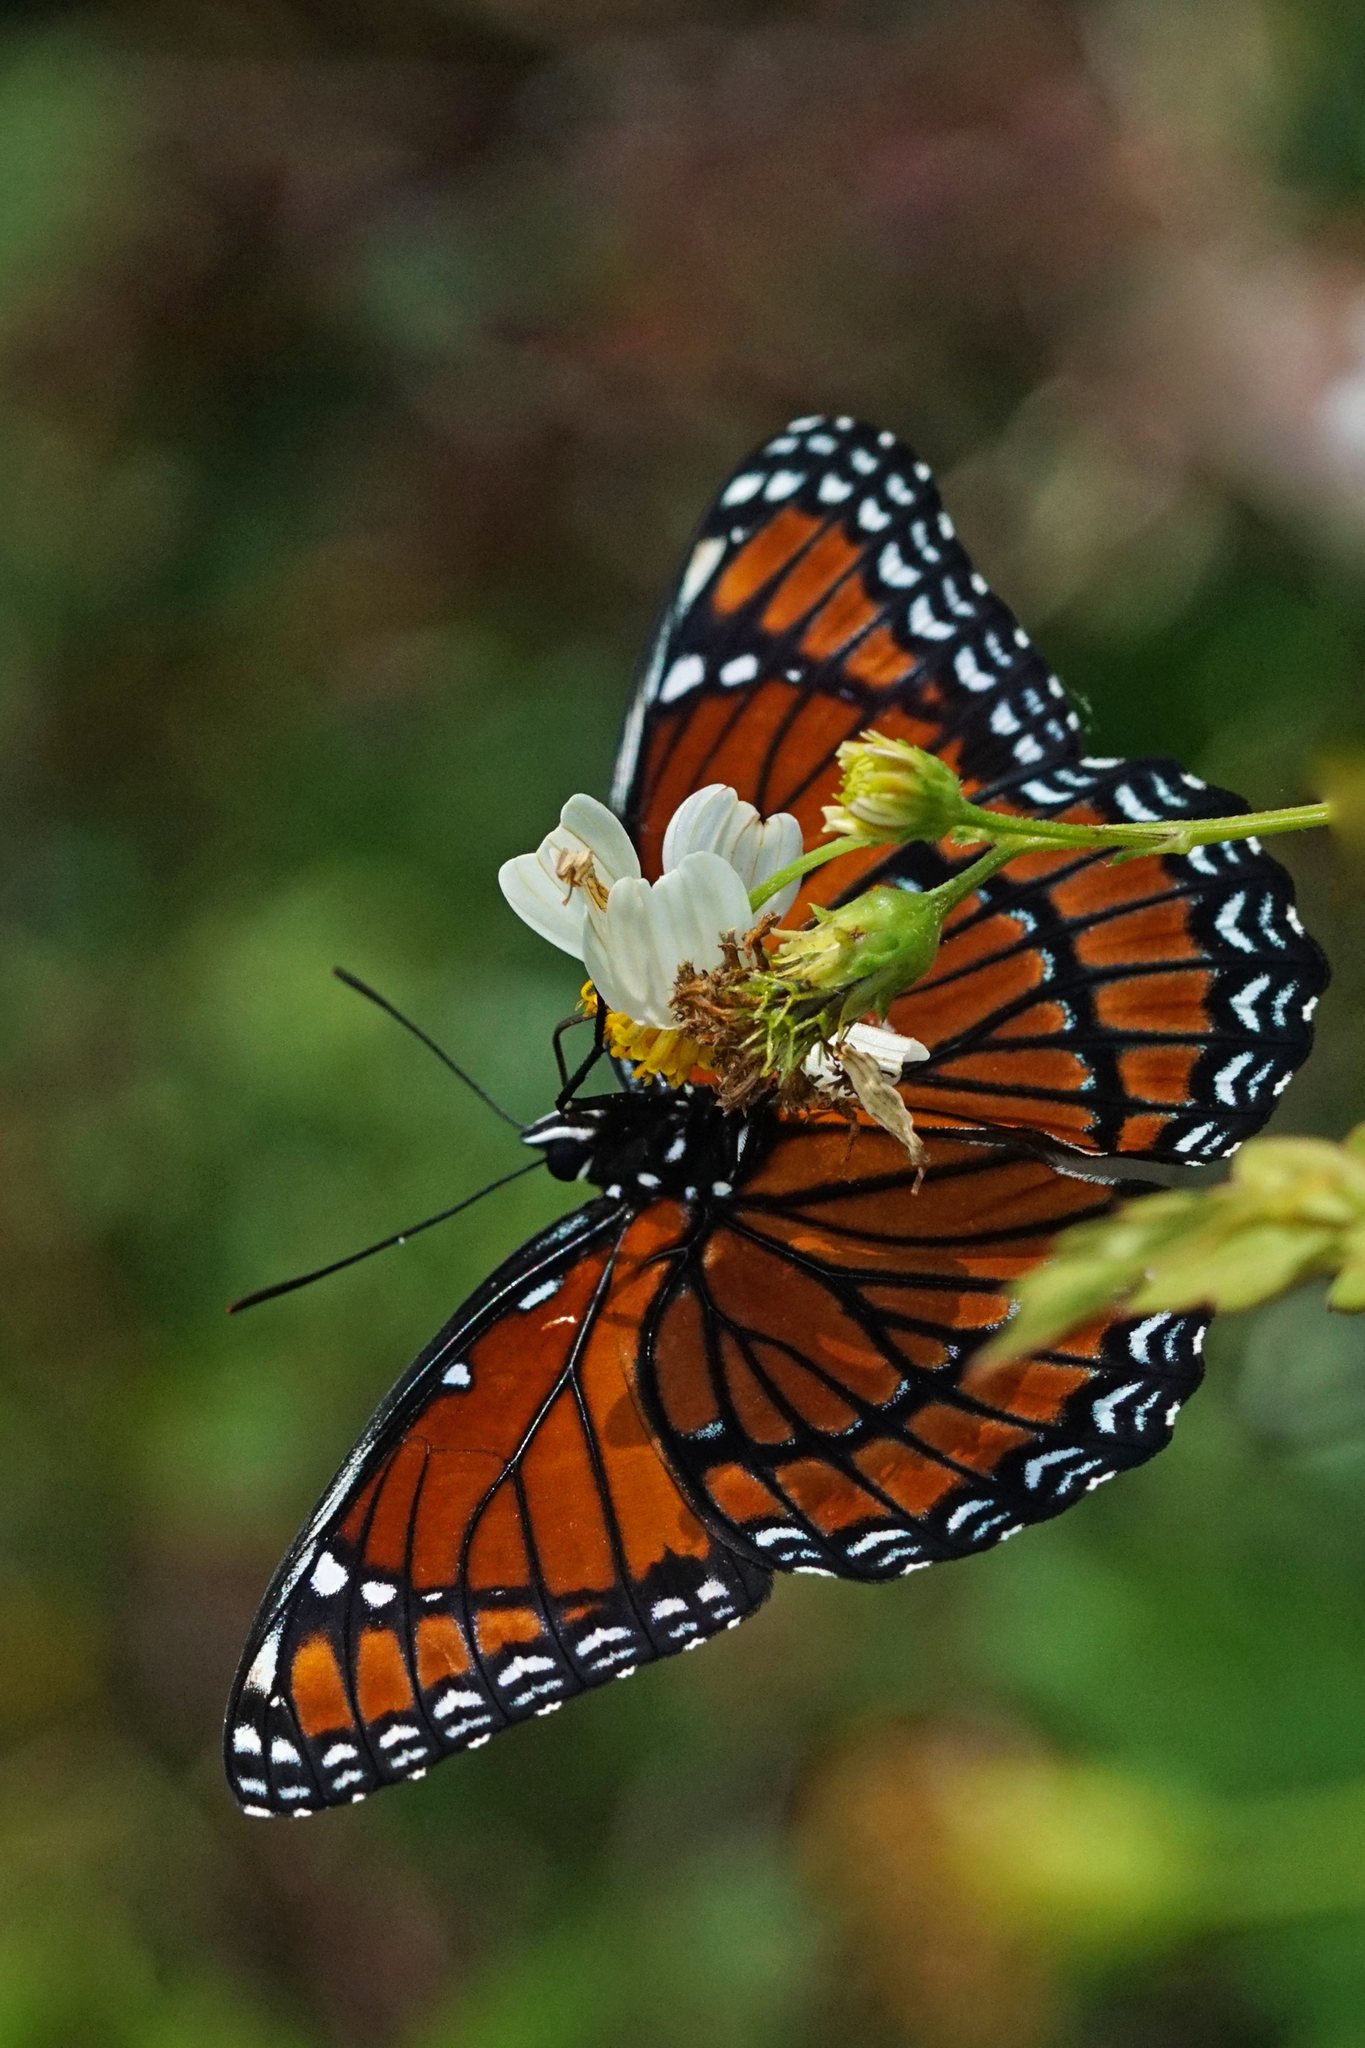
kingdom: Animalia
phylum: Arthropoda
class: Insecta
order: Lepidoptera
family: Nymphalidae
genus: Limenitis
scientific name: Limenitis archippus
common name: Viceroy
